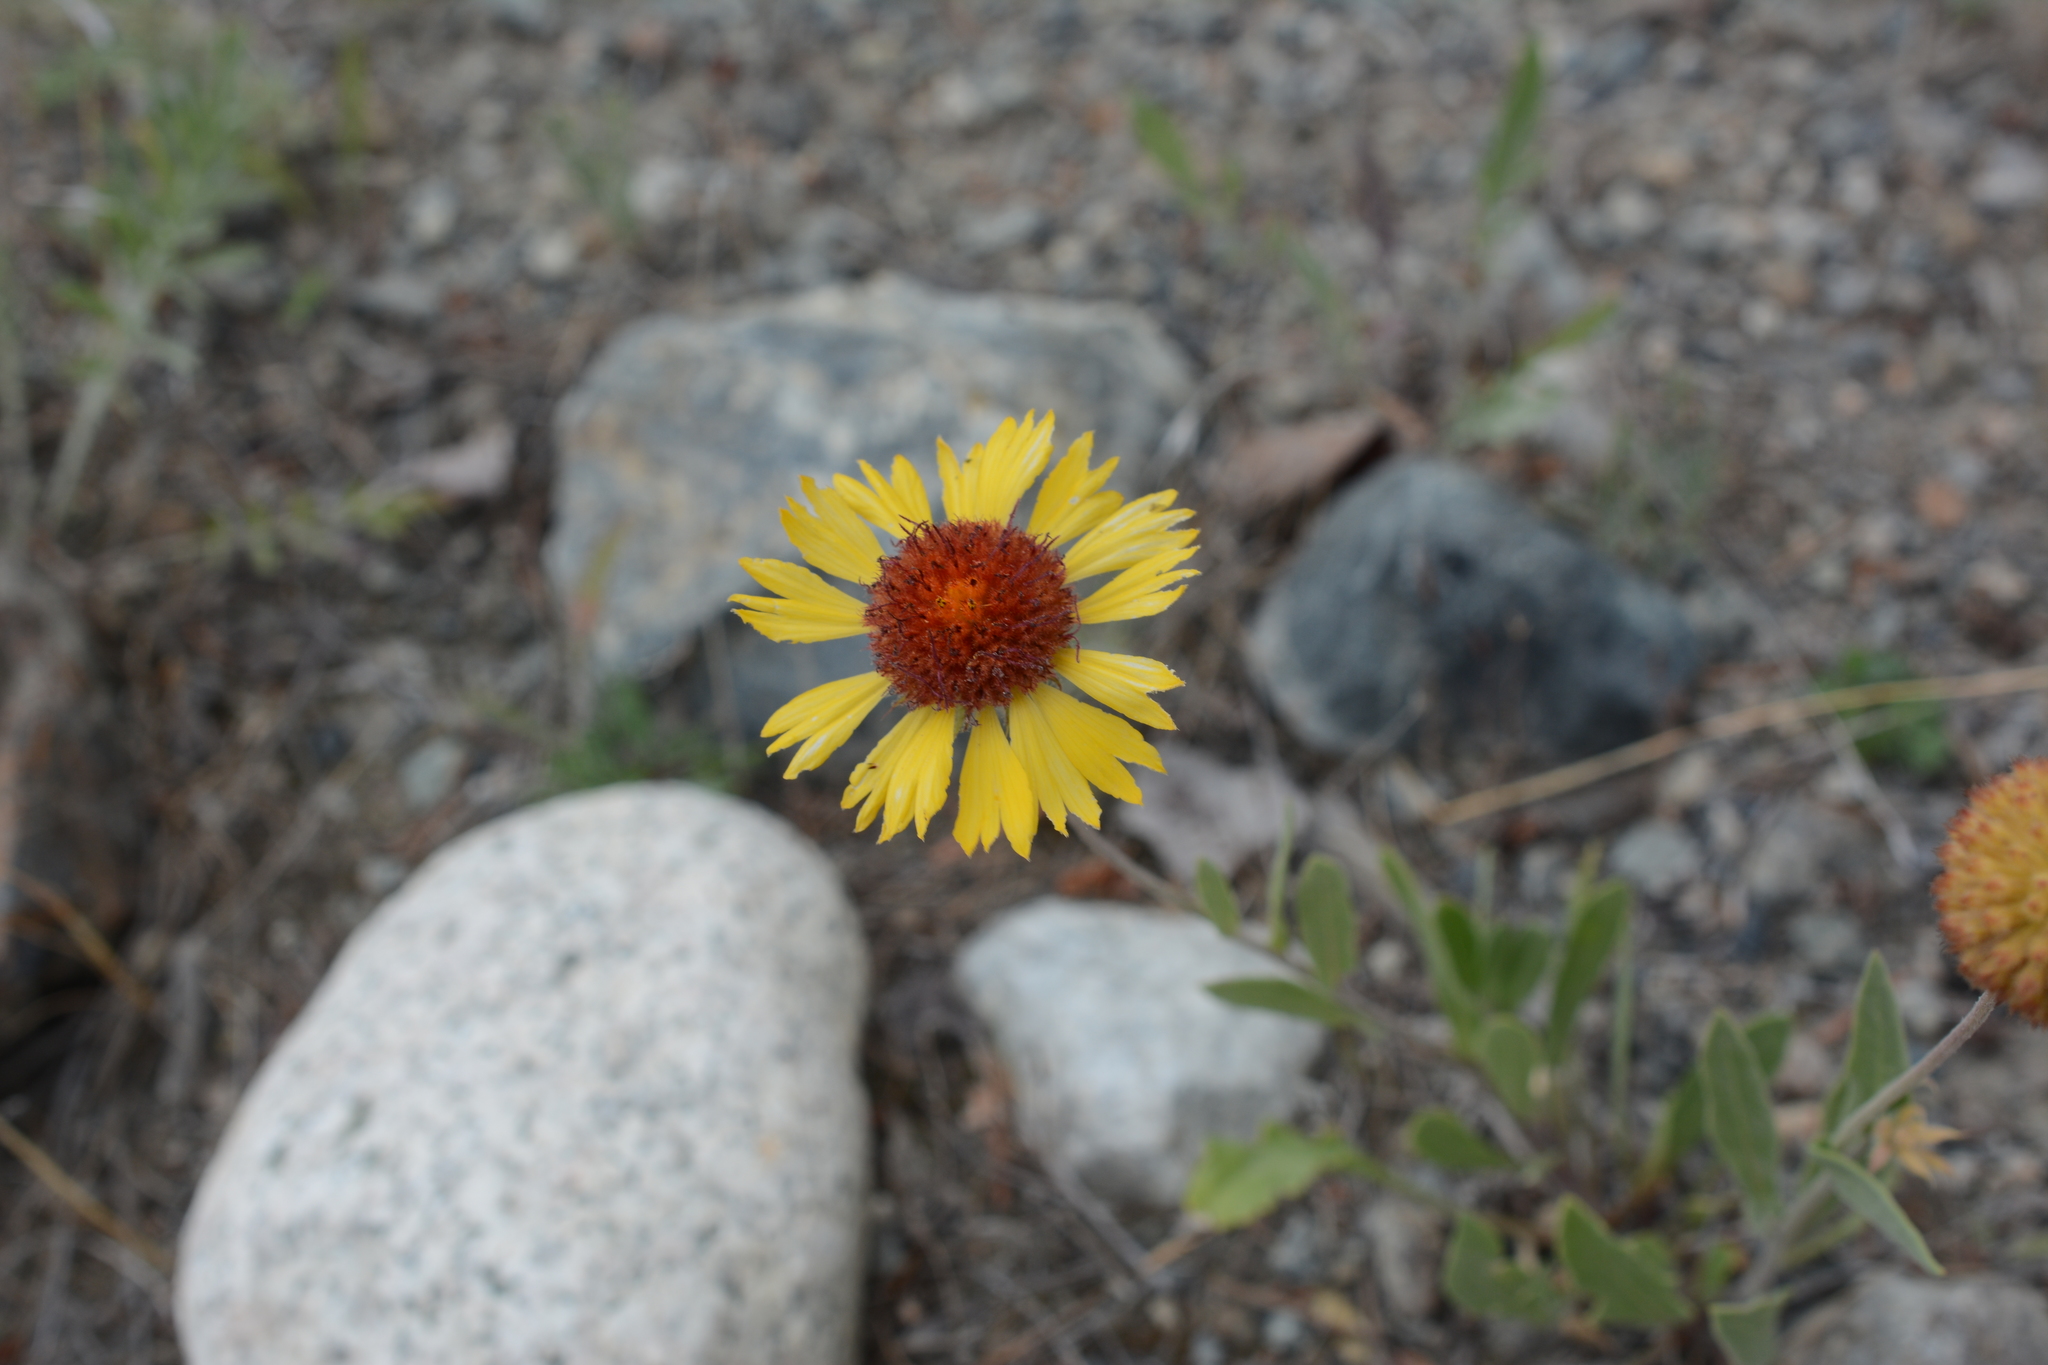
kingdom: Plantae
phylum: Tracheophyta
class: Magnoliopsida
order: Asterales
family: Asteraceae
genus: Gaillardia
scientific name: Gaillardia aristata
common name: Blanket-flower
